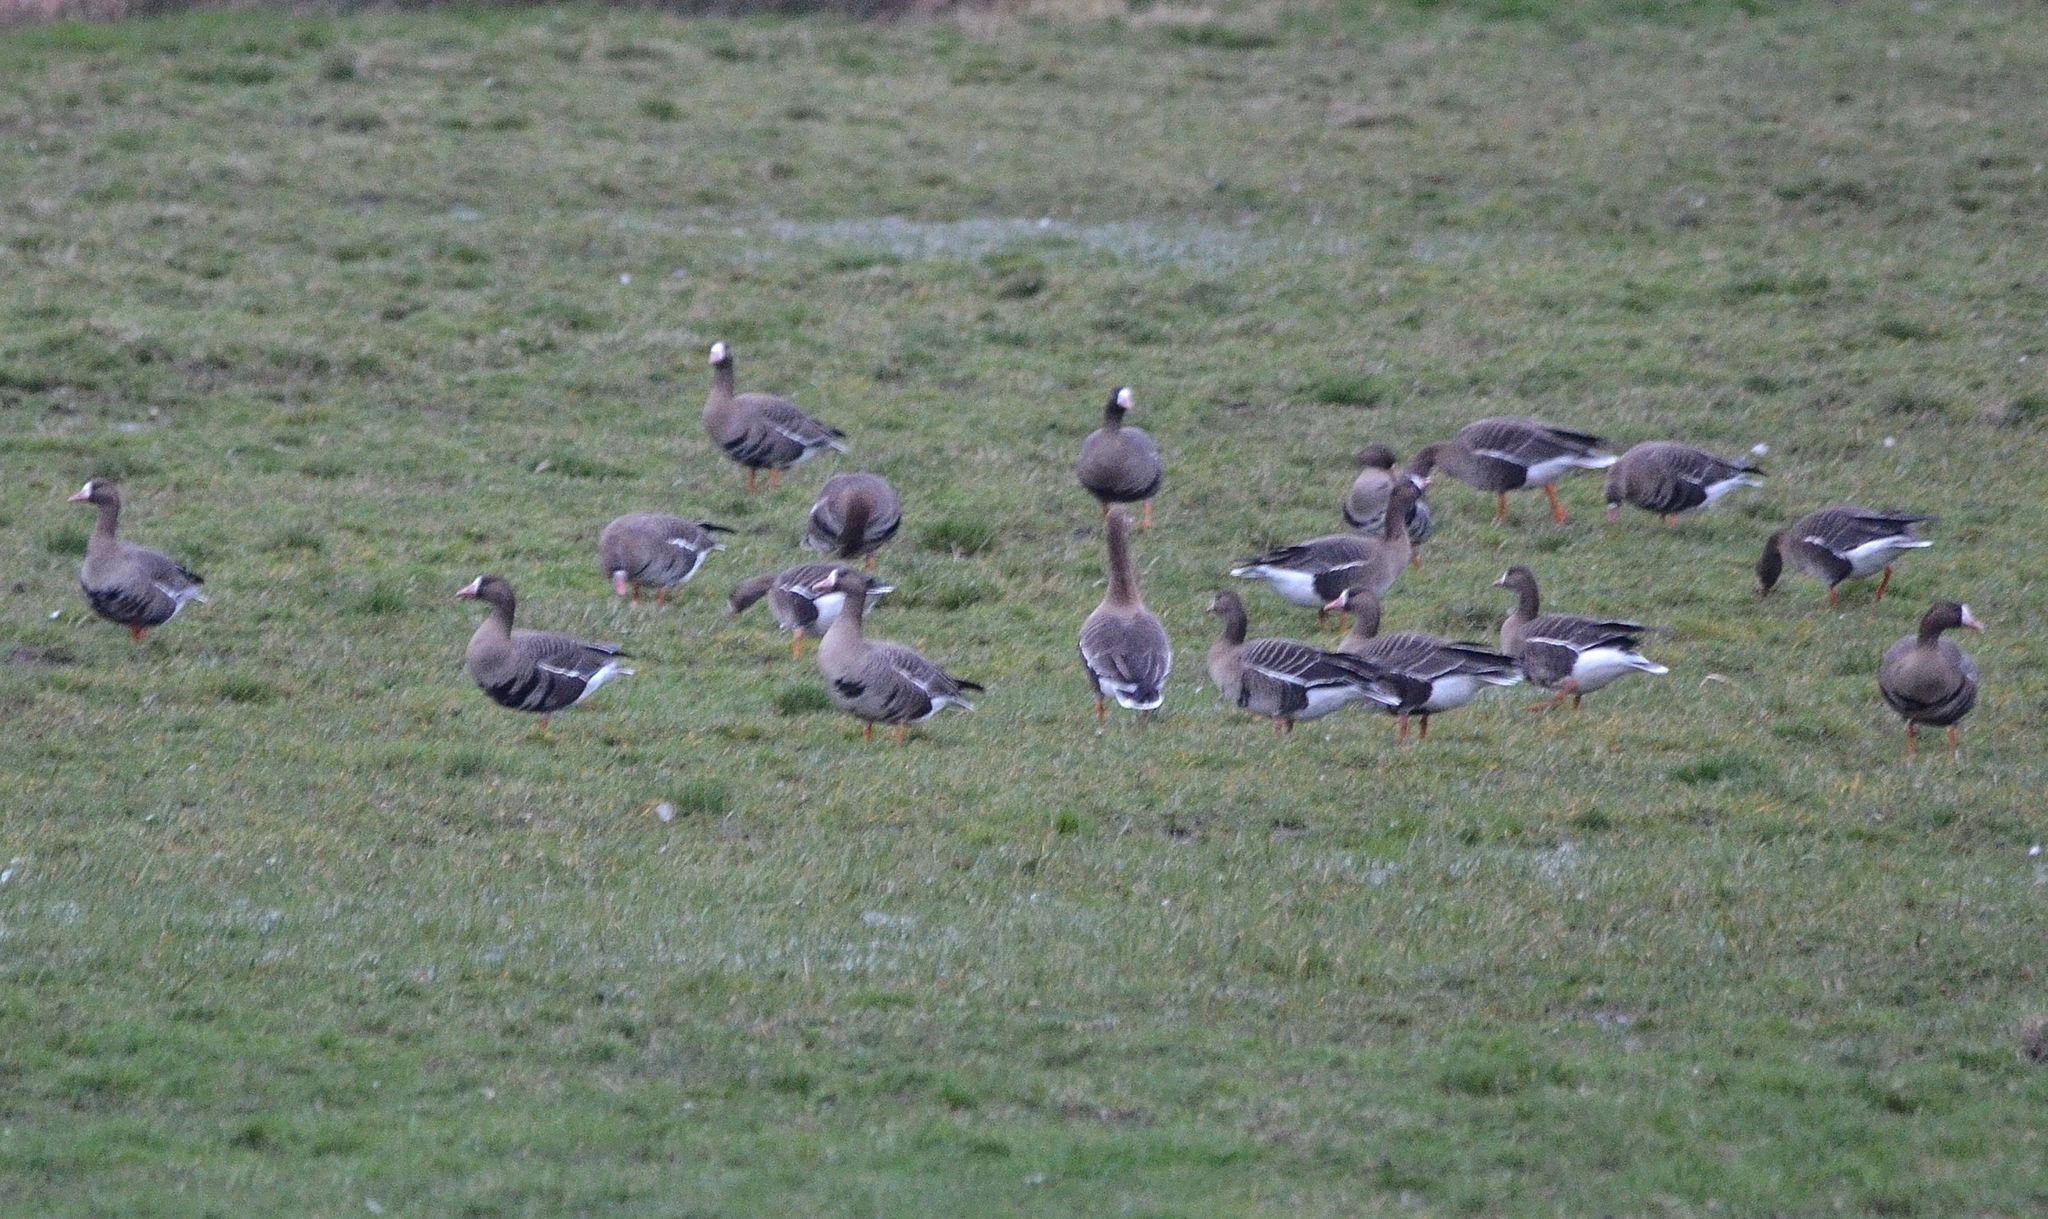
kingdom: Animalia
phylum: Chordata
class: Aves
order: Anseriformes
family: Anatidae
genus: Anser
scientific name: Anser albifrons
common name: Greater white-fronted goose
